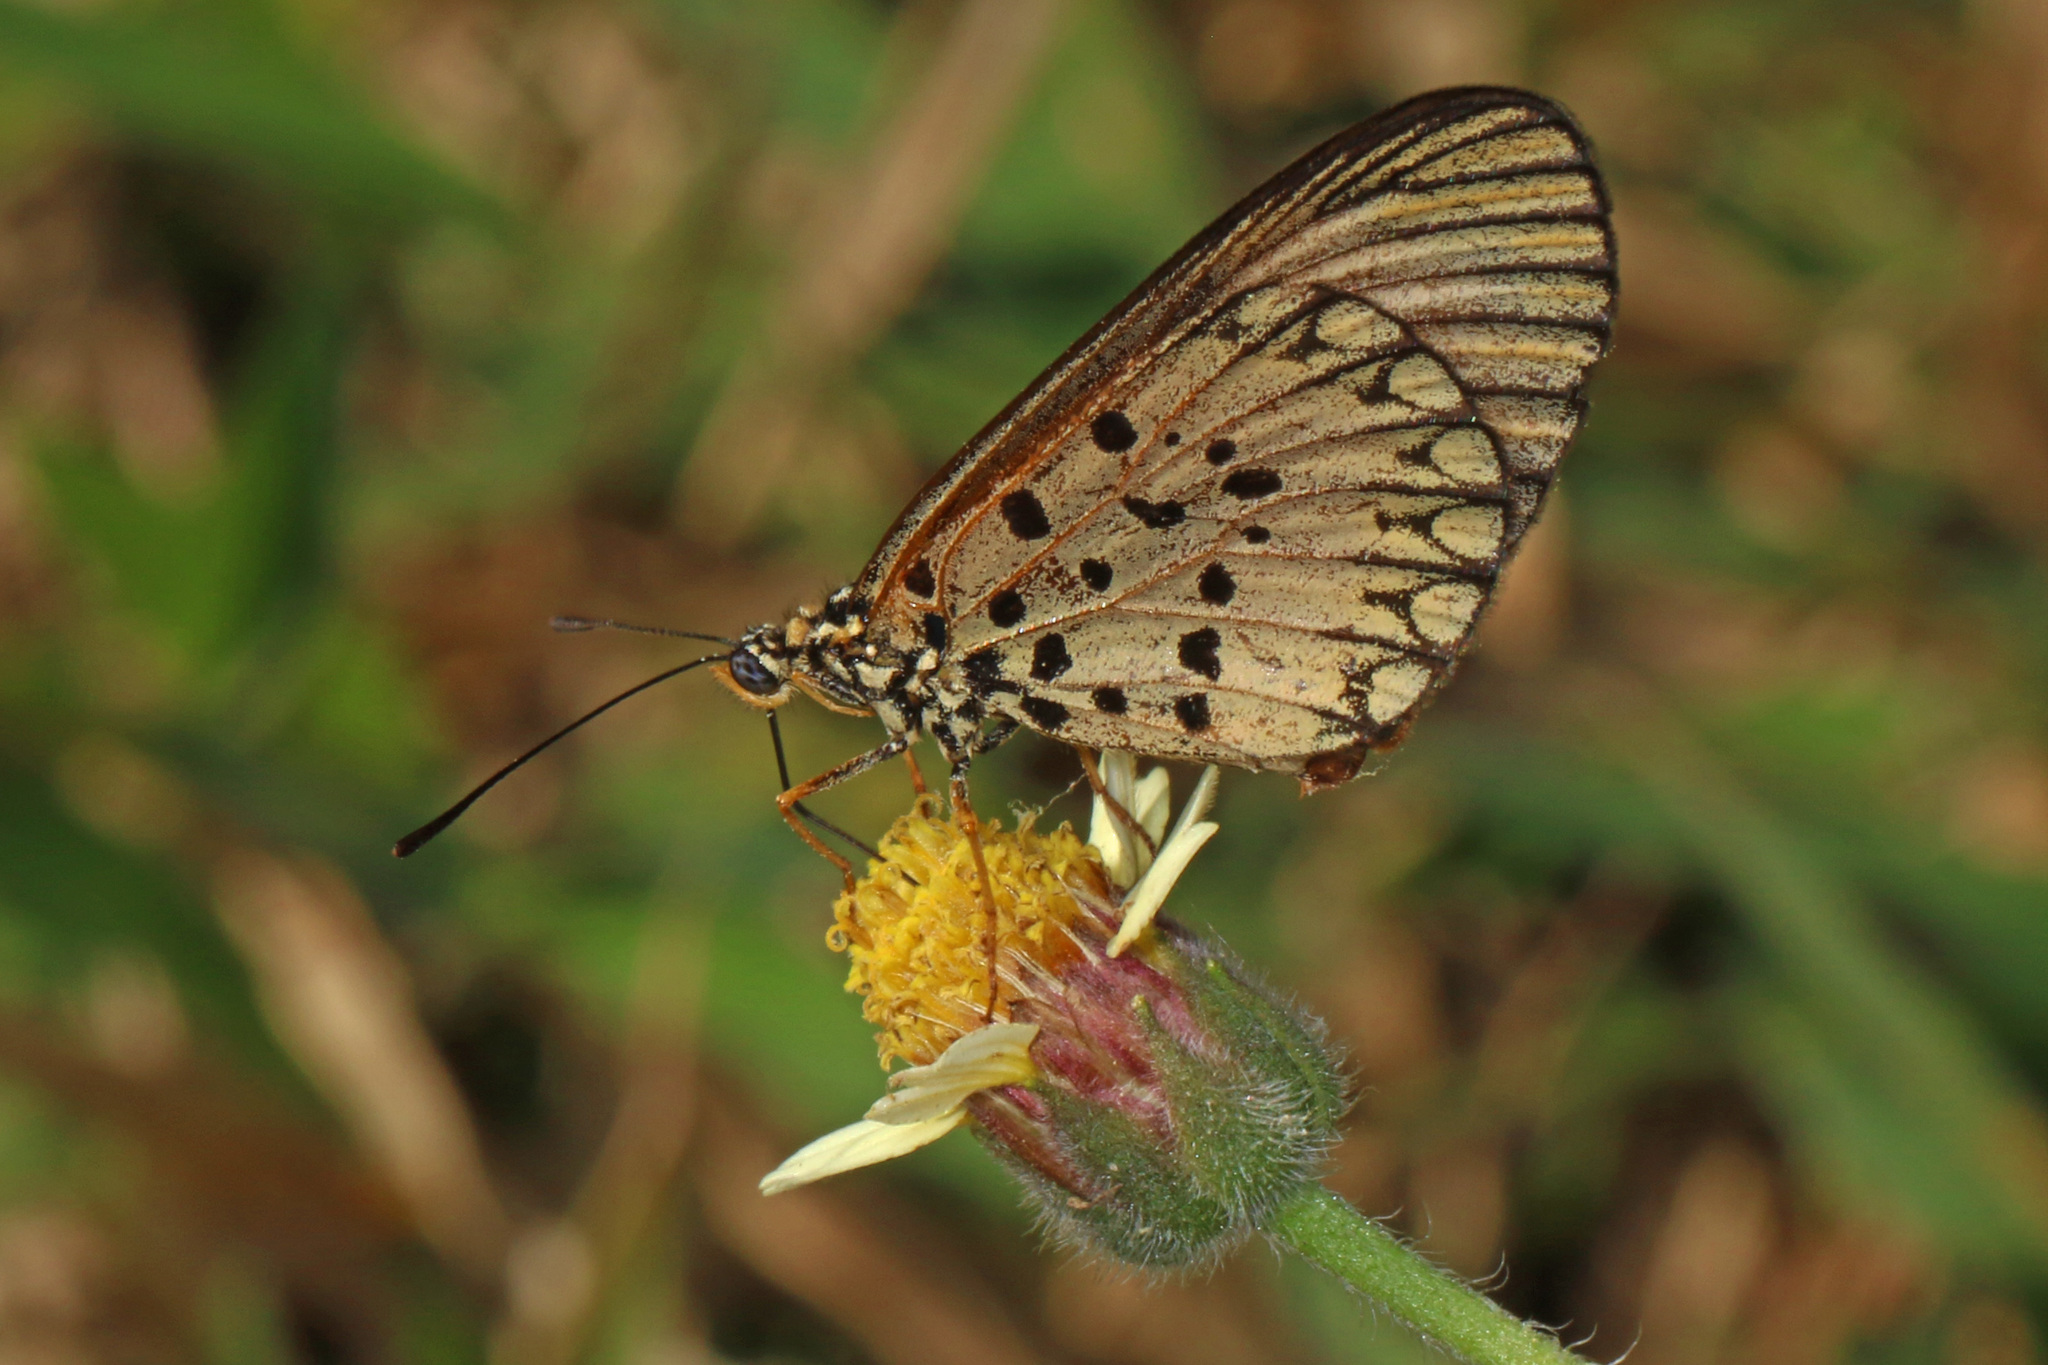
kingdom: Animalia
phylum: Arthropoda
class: Insecta
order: Lepidoptera
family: Nymphalidae
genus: Acraea
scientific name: Acraea Telchinia serena
